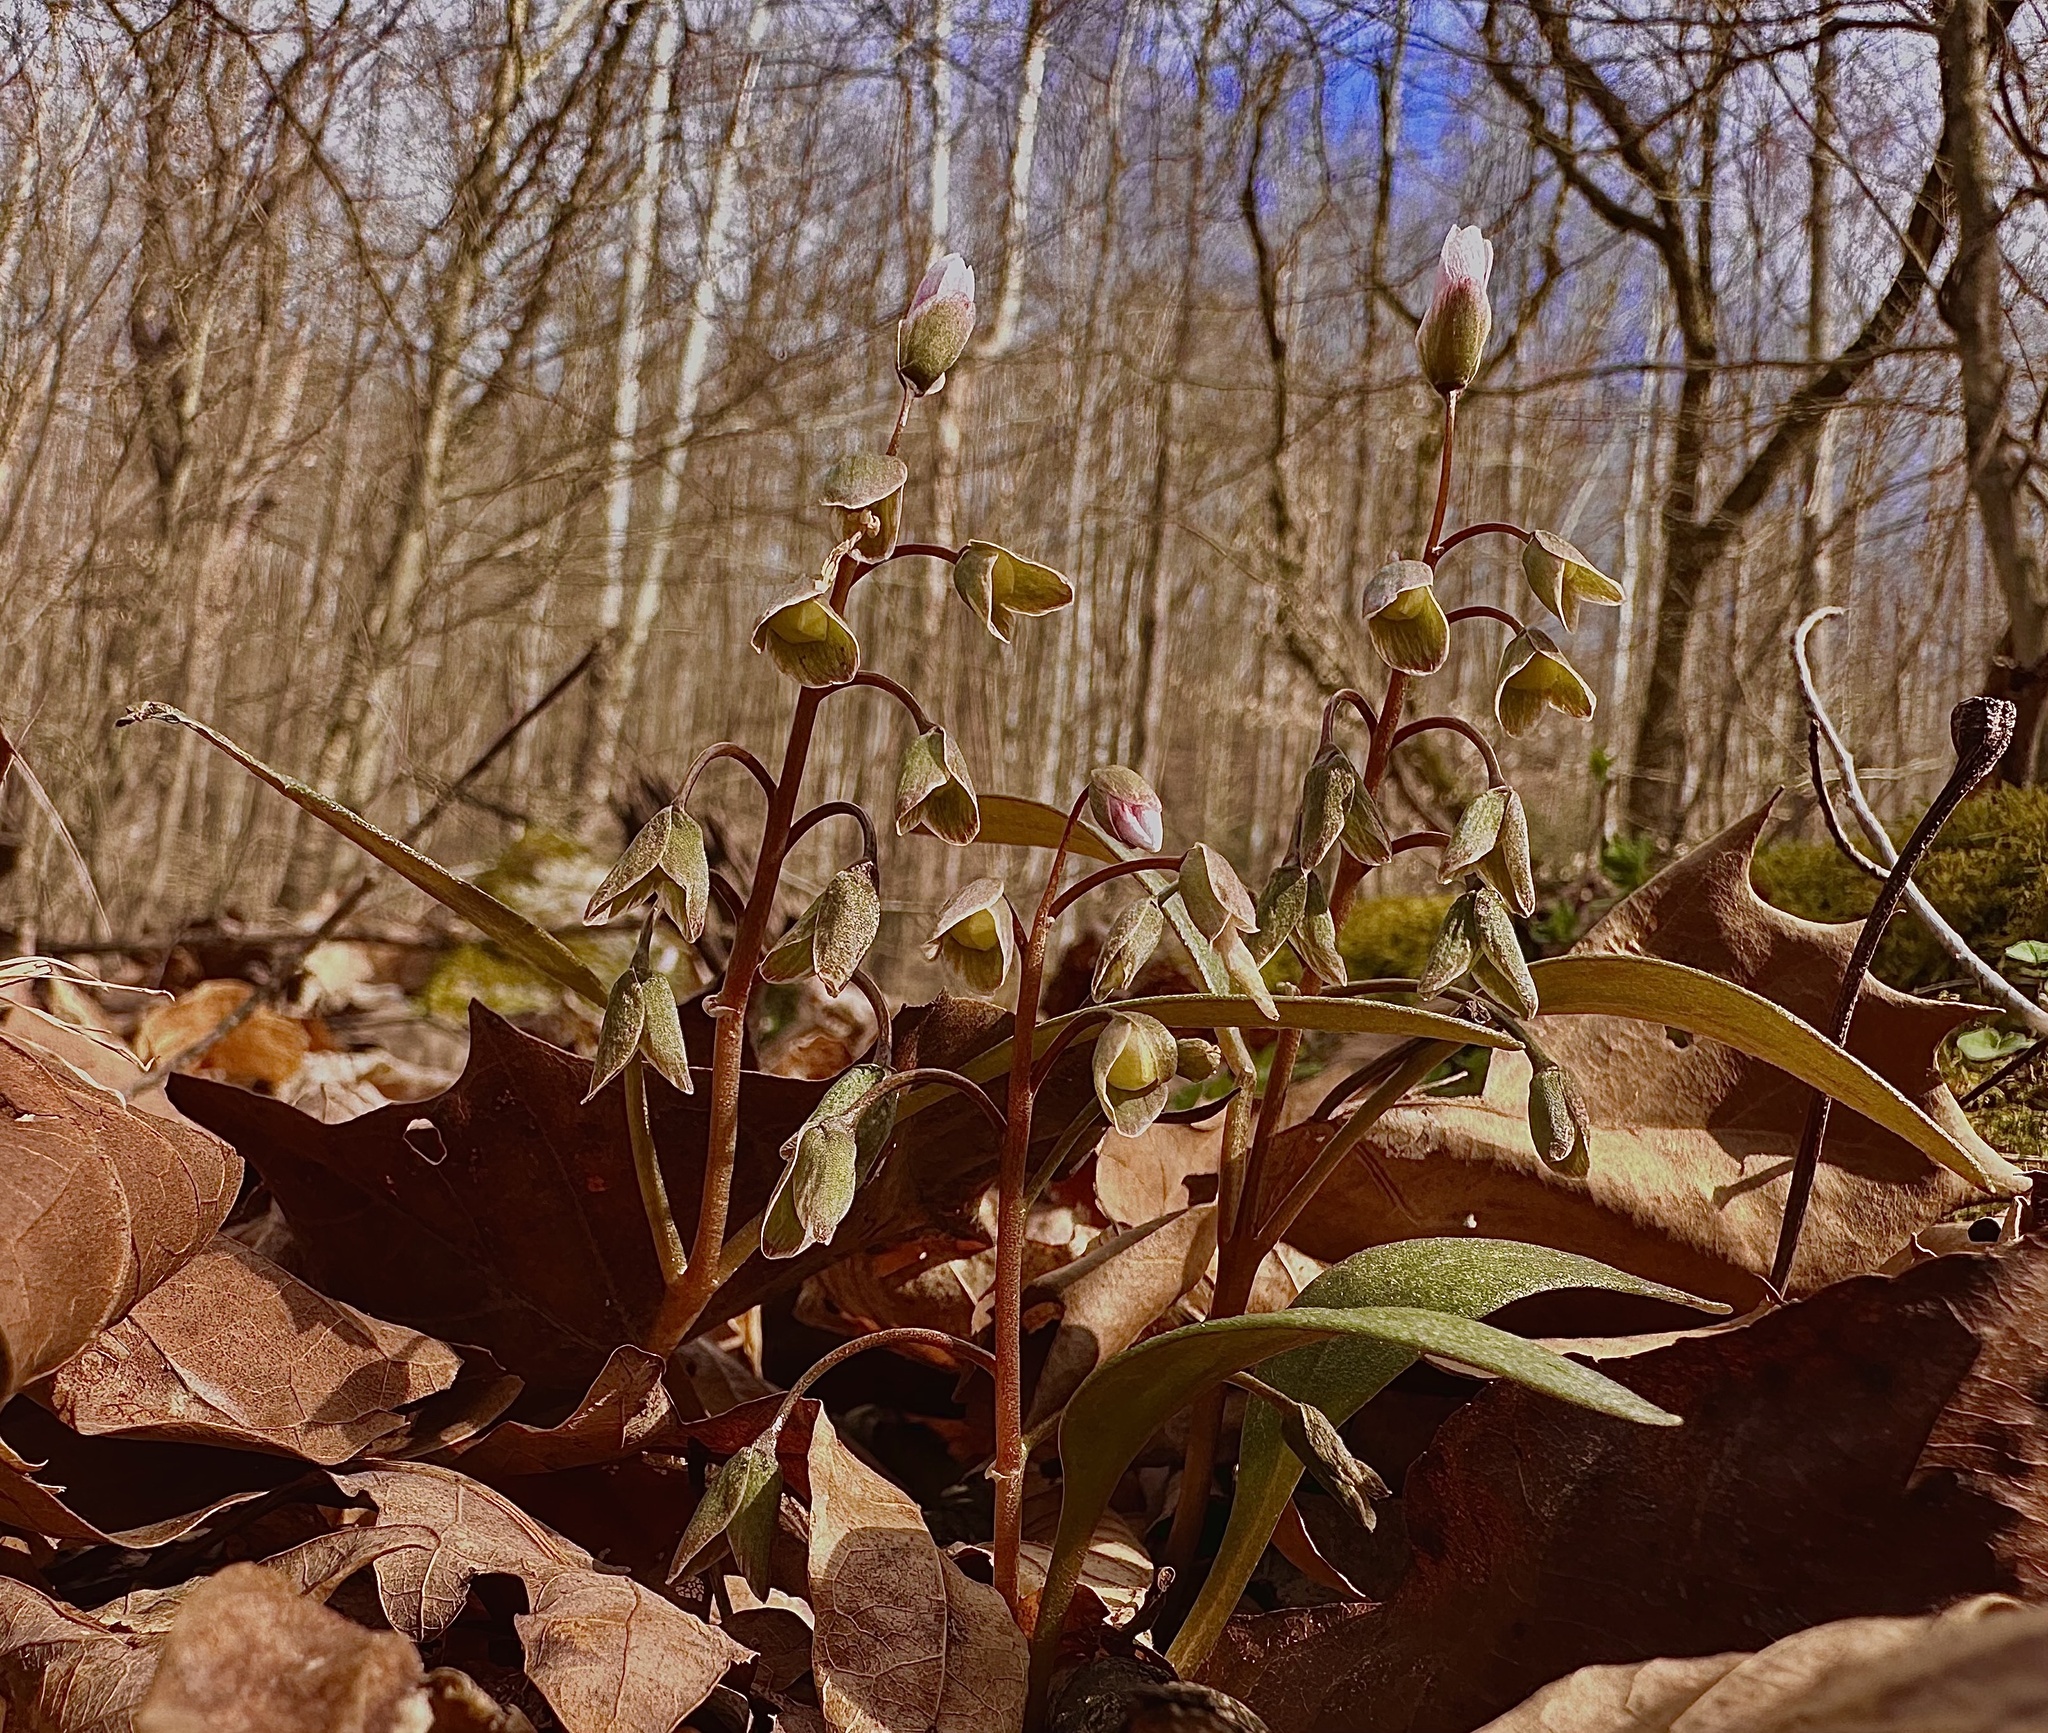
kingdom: Plantae
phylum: Tracheophyta
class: Magnoliopsida
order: Caryophyllales
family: Montiaceae
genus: Claytonia
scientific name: Claytonia caroliniana
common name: Carolina spring beauty
